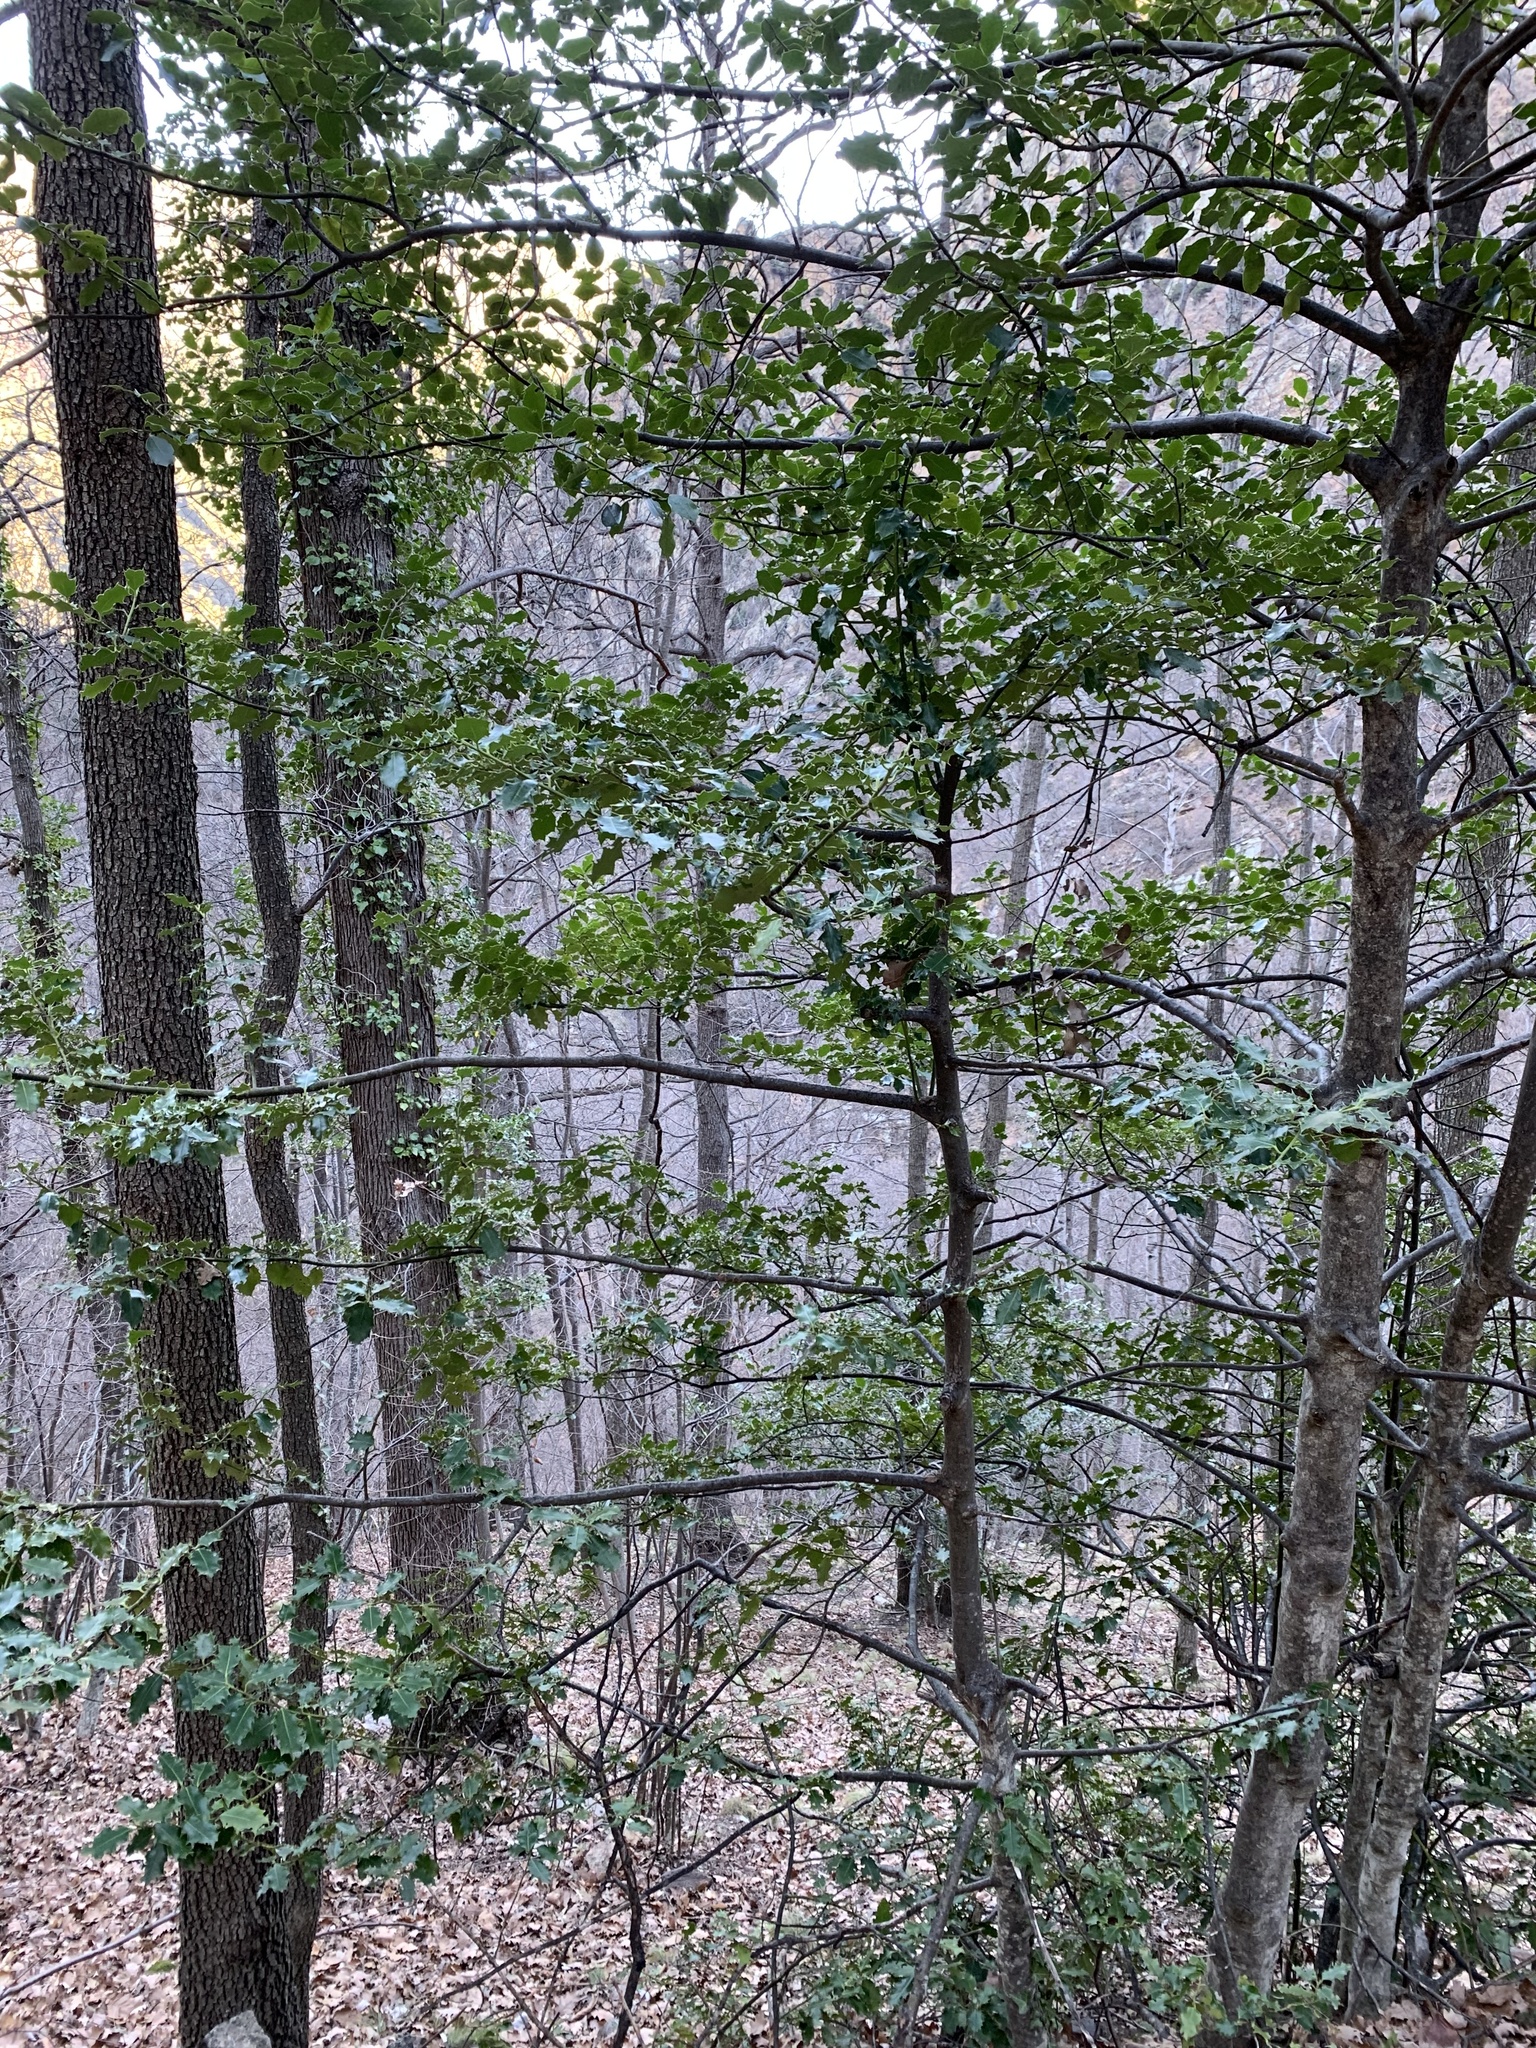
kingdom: Plantae
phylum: Tracheophyta
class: Magnoliopsida
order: Aquifoliales
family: Aquifoliaceae
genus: Ilex
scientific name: Ilex aquifolium
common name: English holly
